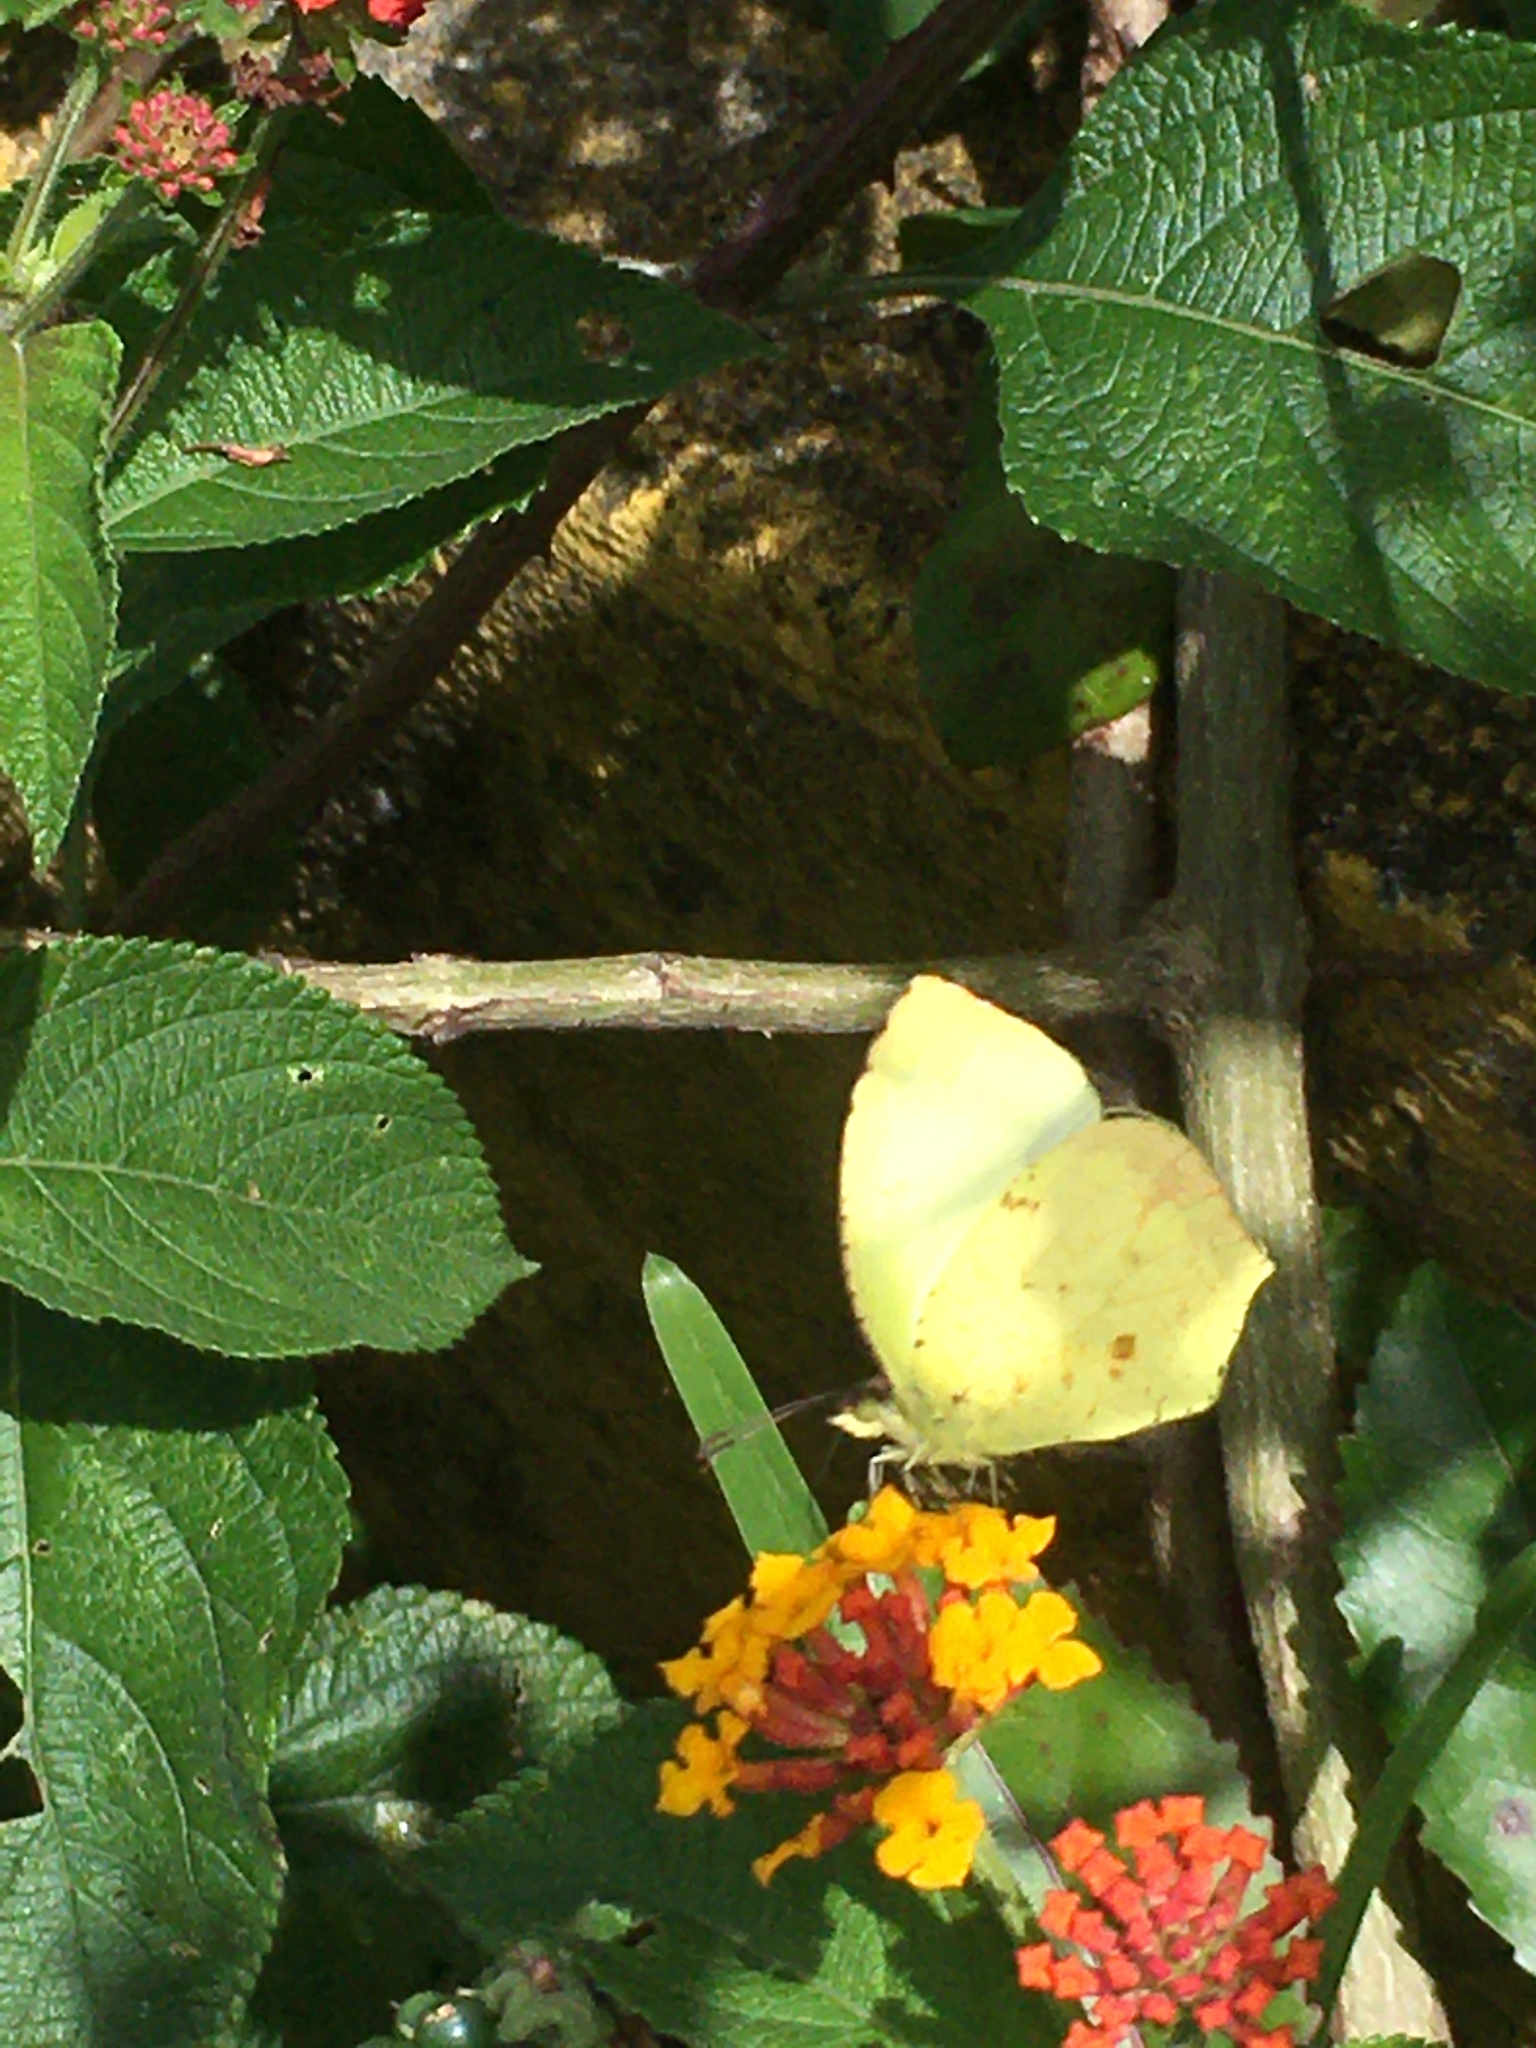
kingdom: Animalia
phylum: Arthropoda
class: Insecta
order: Lepidoptera
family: Pieridae
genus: Abaeis
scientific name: Abaeis salome
